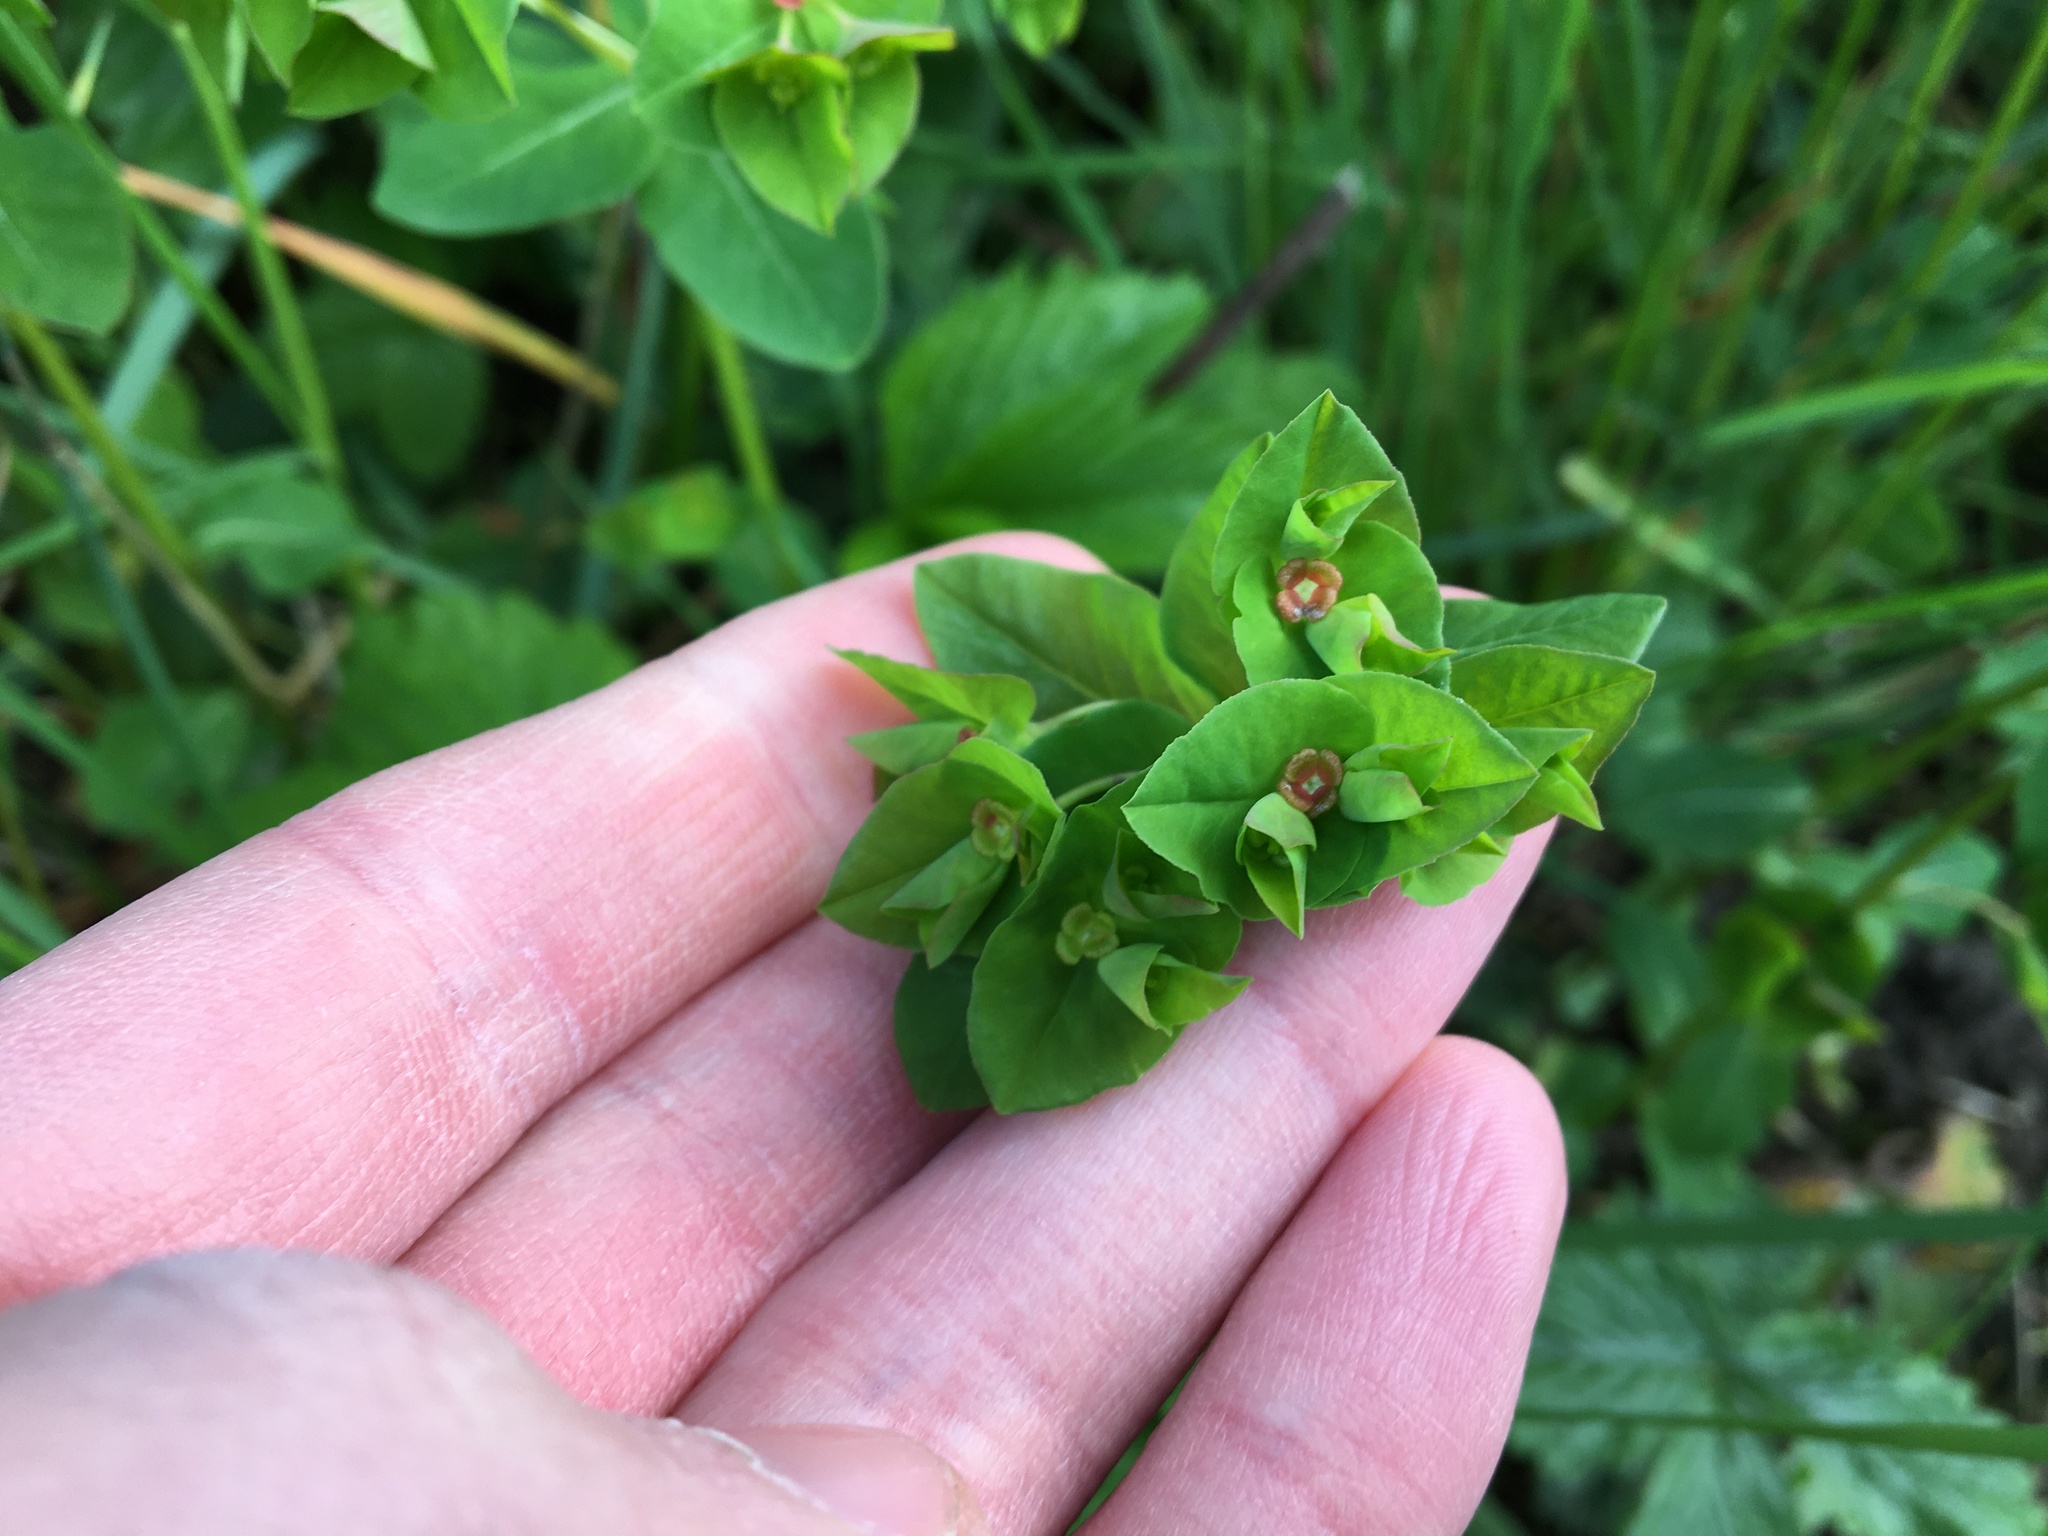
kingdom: Plantae
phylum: Tracheophyta
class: Magnoliopsida
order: Malpighiales
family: Euphorbiaceae
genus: Euphorbia
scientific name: Euphorbia dulcis
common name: Sweet spurge
